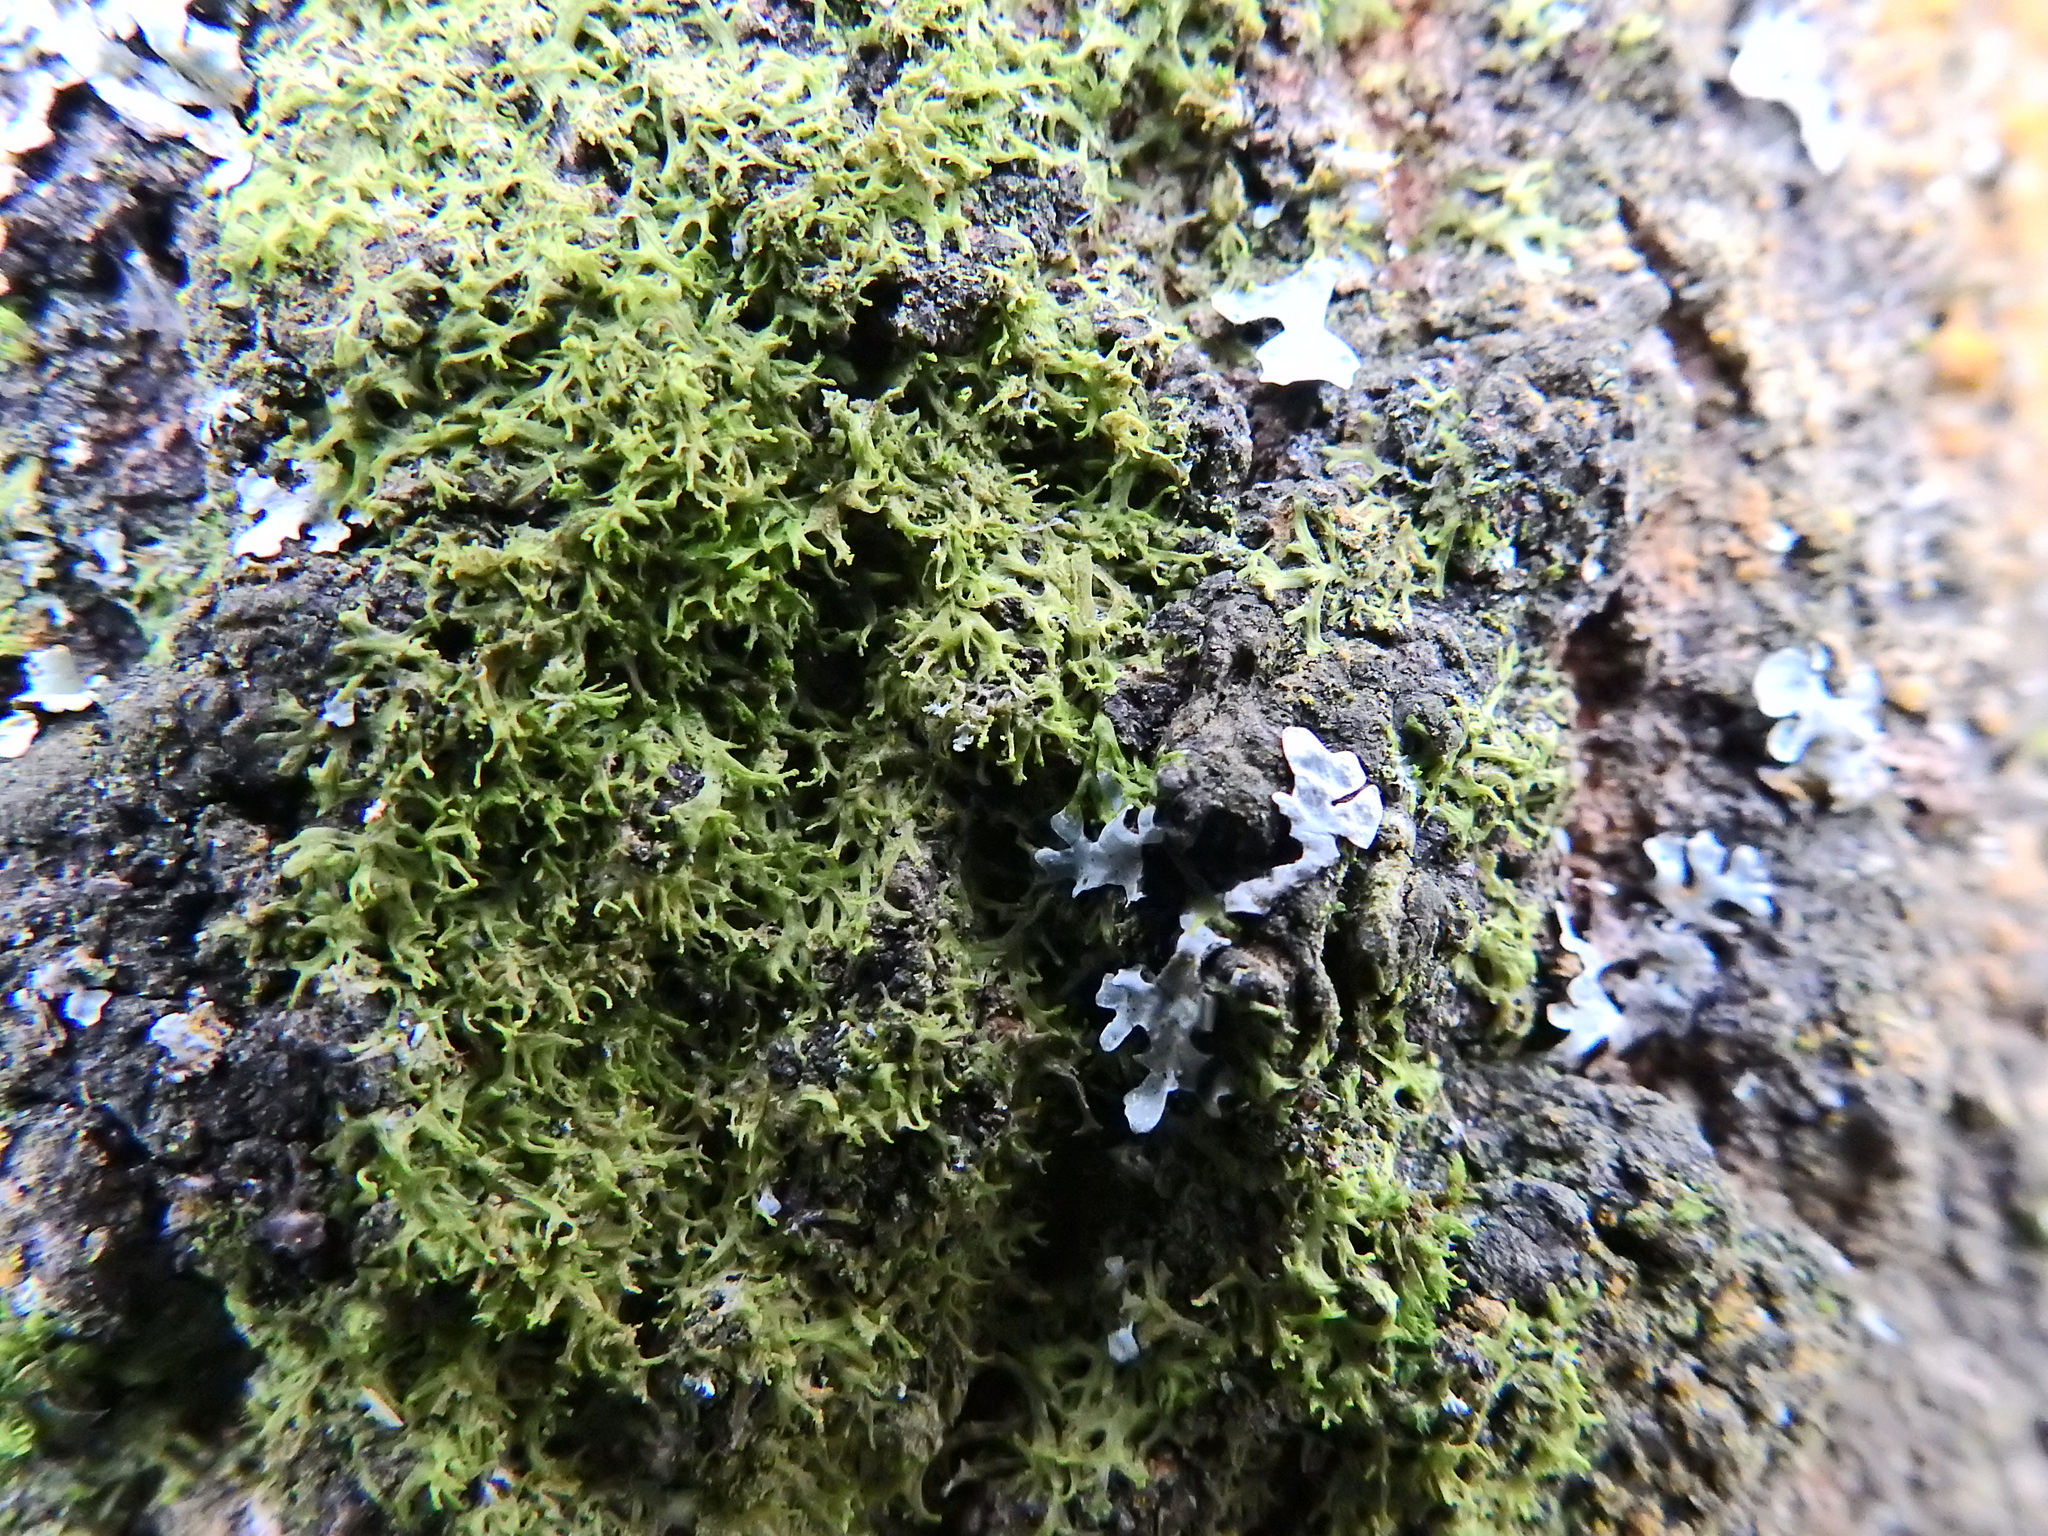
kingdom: Plantae
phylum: Marchantiophyta
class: Jungermanniopsida
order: Metzgeriales
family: Metzgeriaceae
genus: Metzgeria
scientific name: Metzgeria violacea
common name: Blueish veilwort
